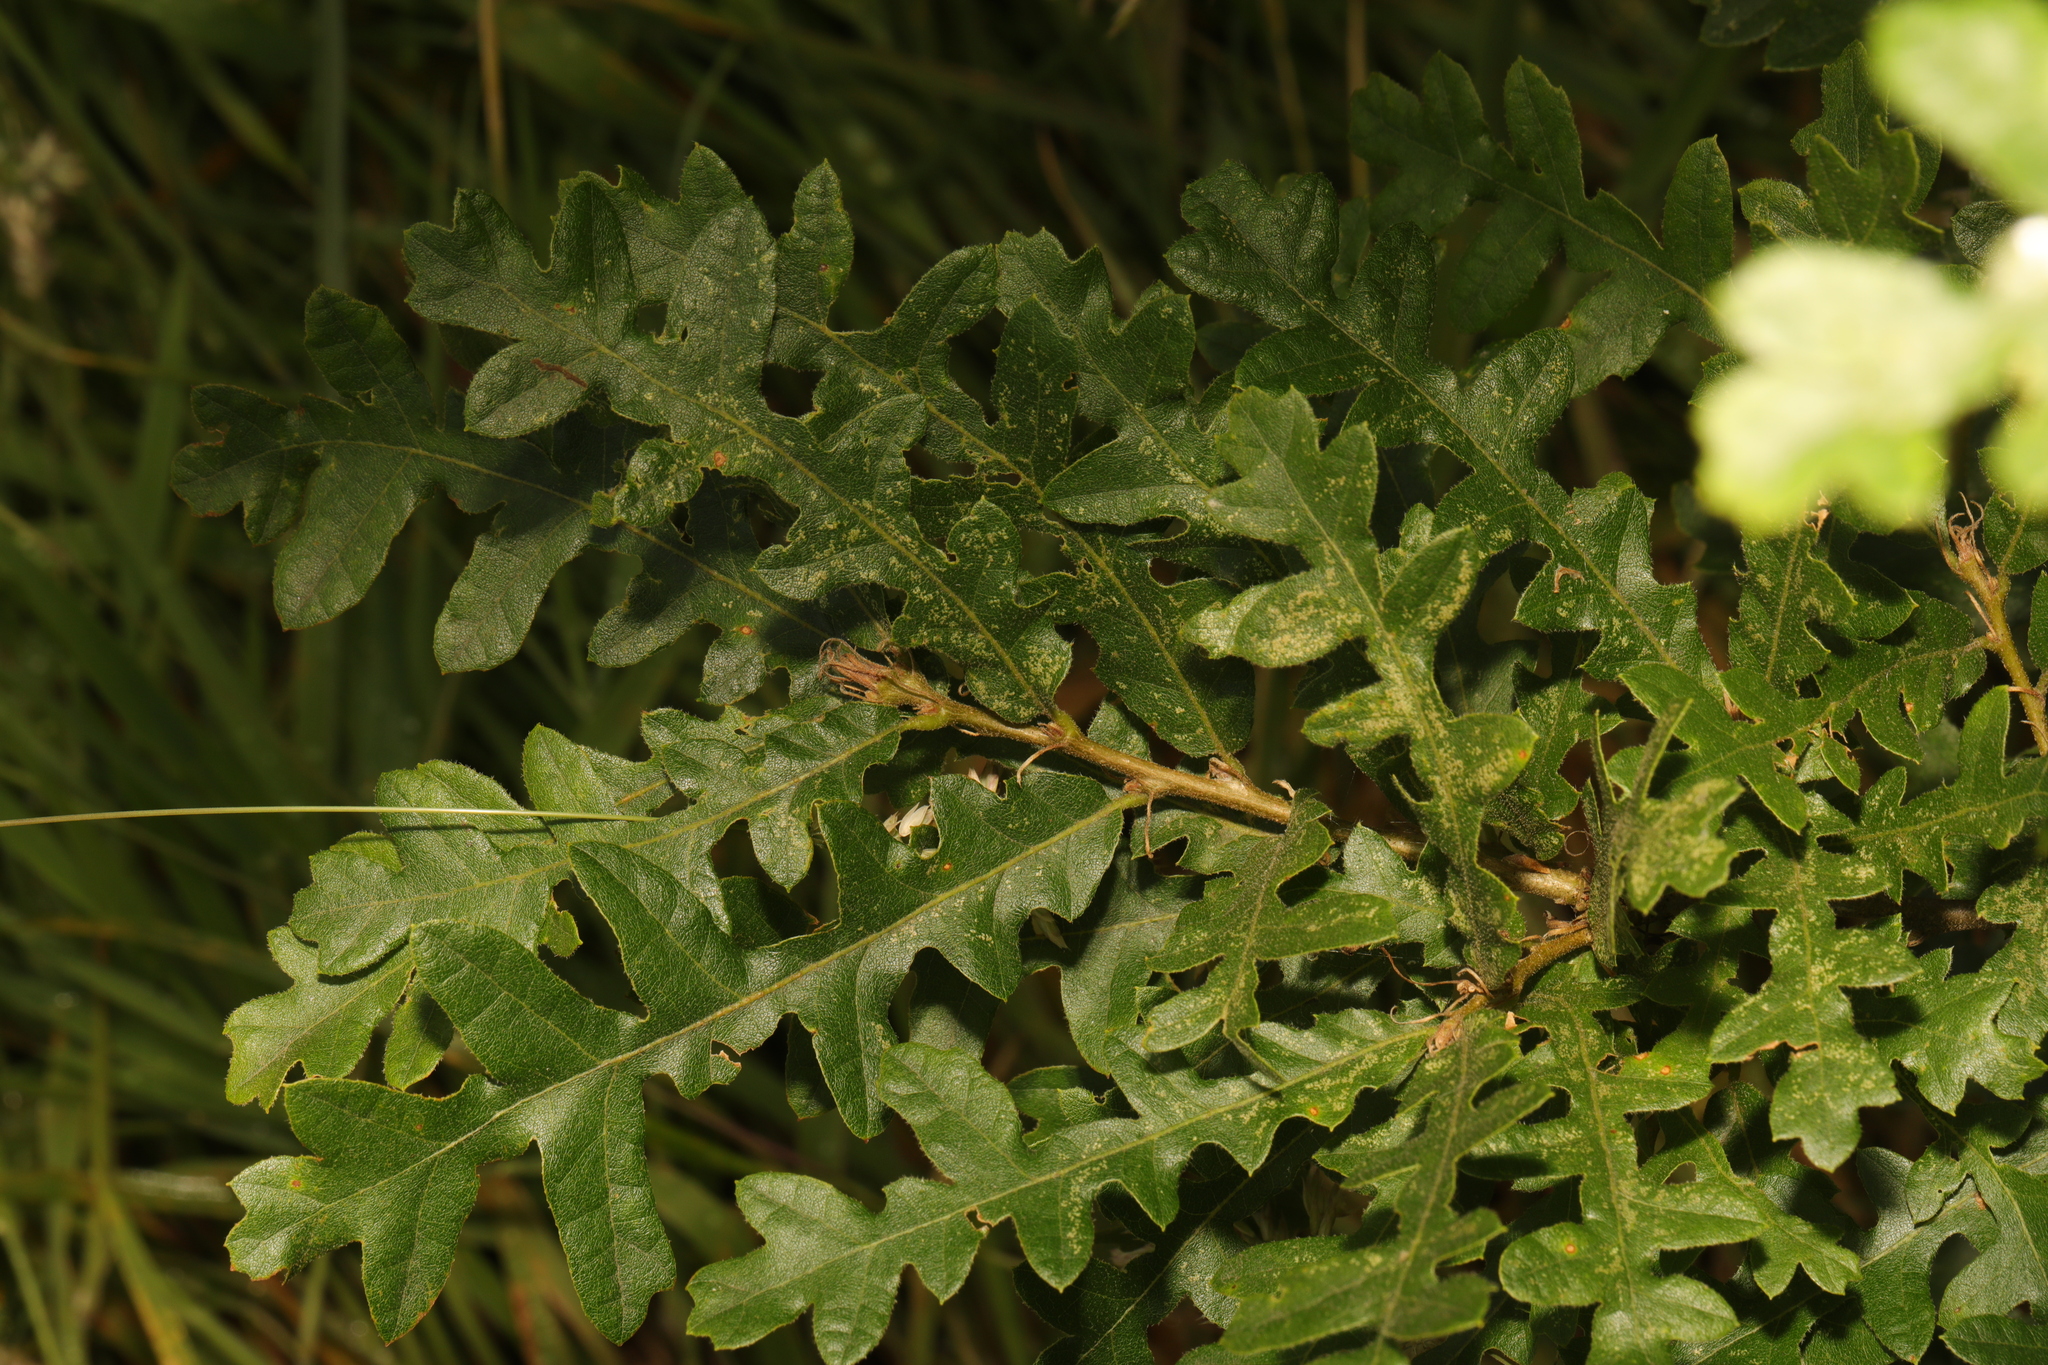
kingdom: Plantae
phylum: Tracheophyta
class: Magnoliopsida
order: Fagales
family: Fagaceae
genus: Quercus
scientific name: Quercus cerris
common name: Turkey oak
